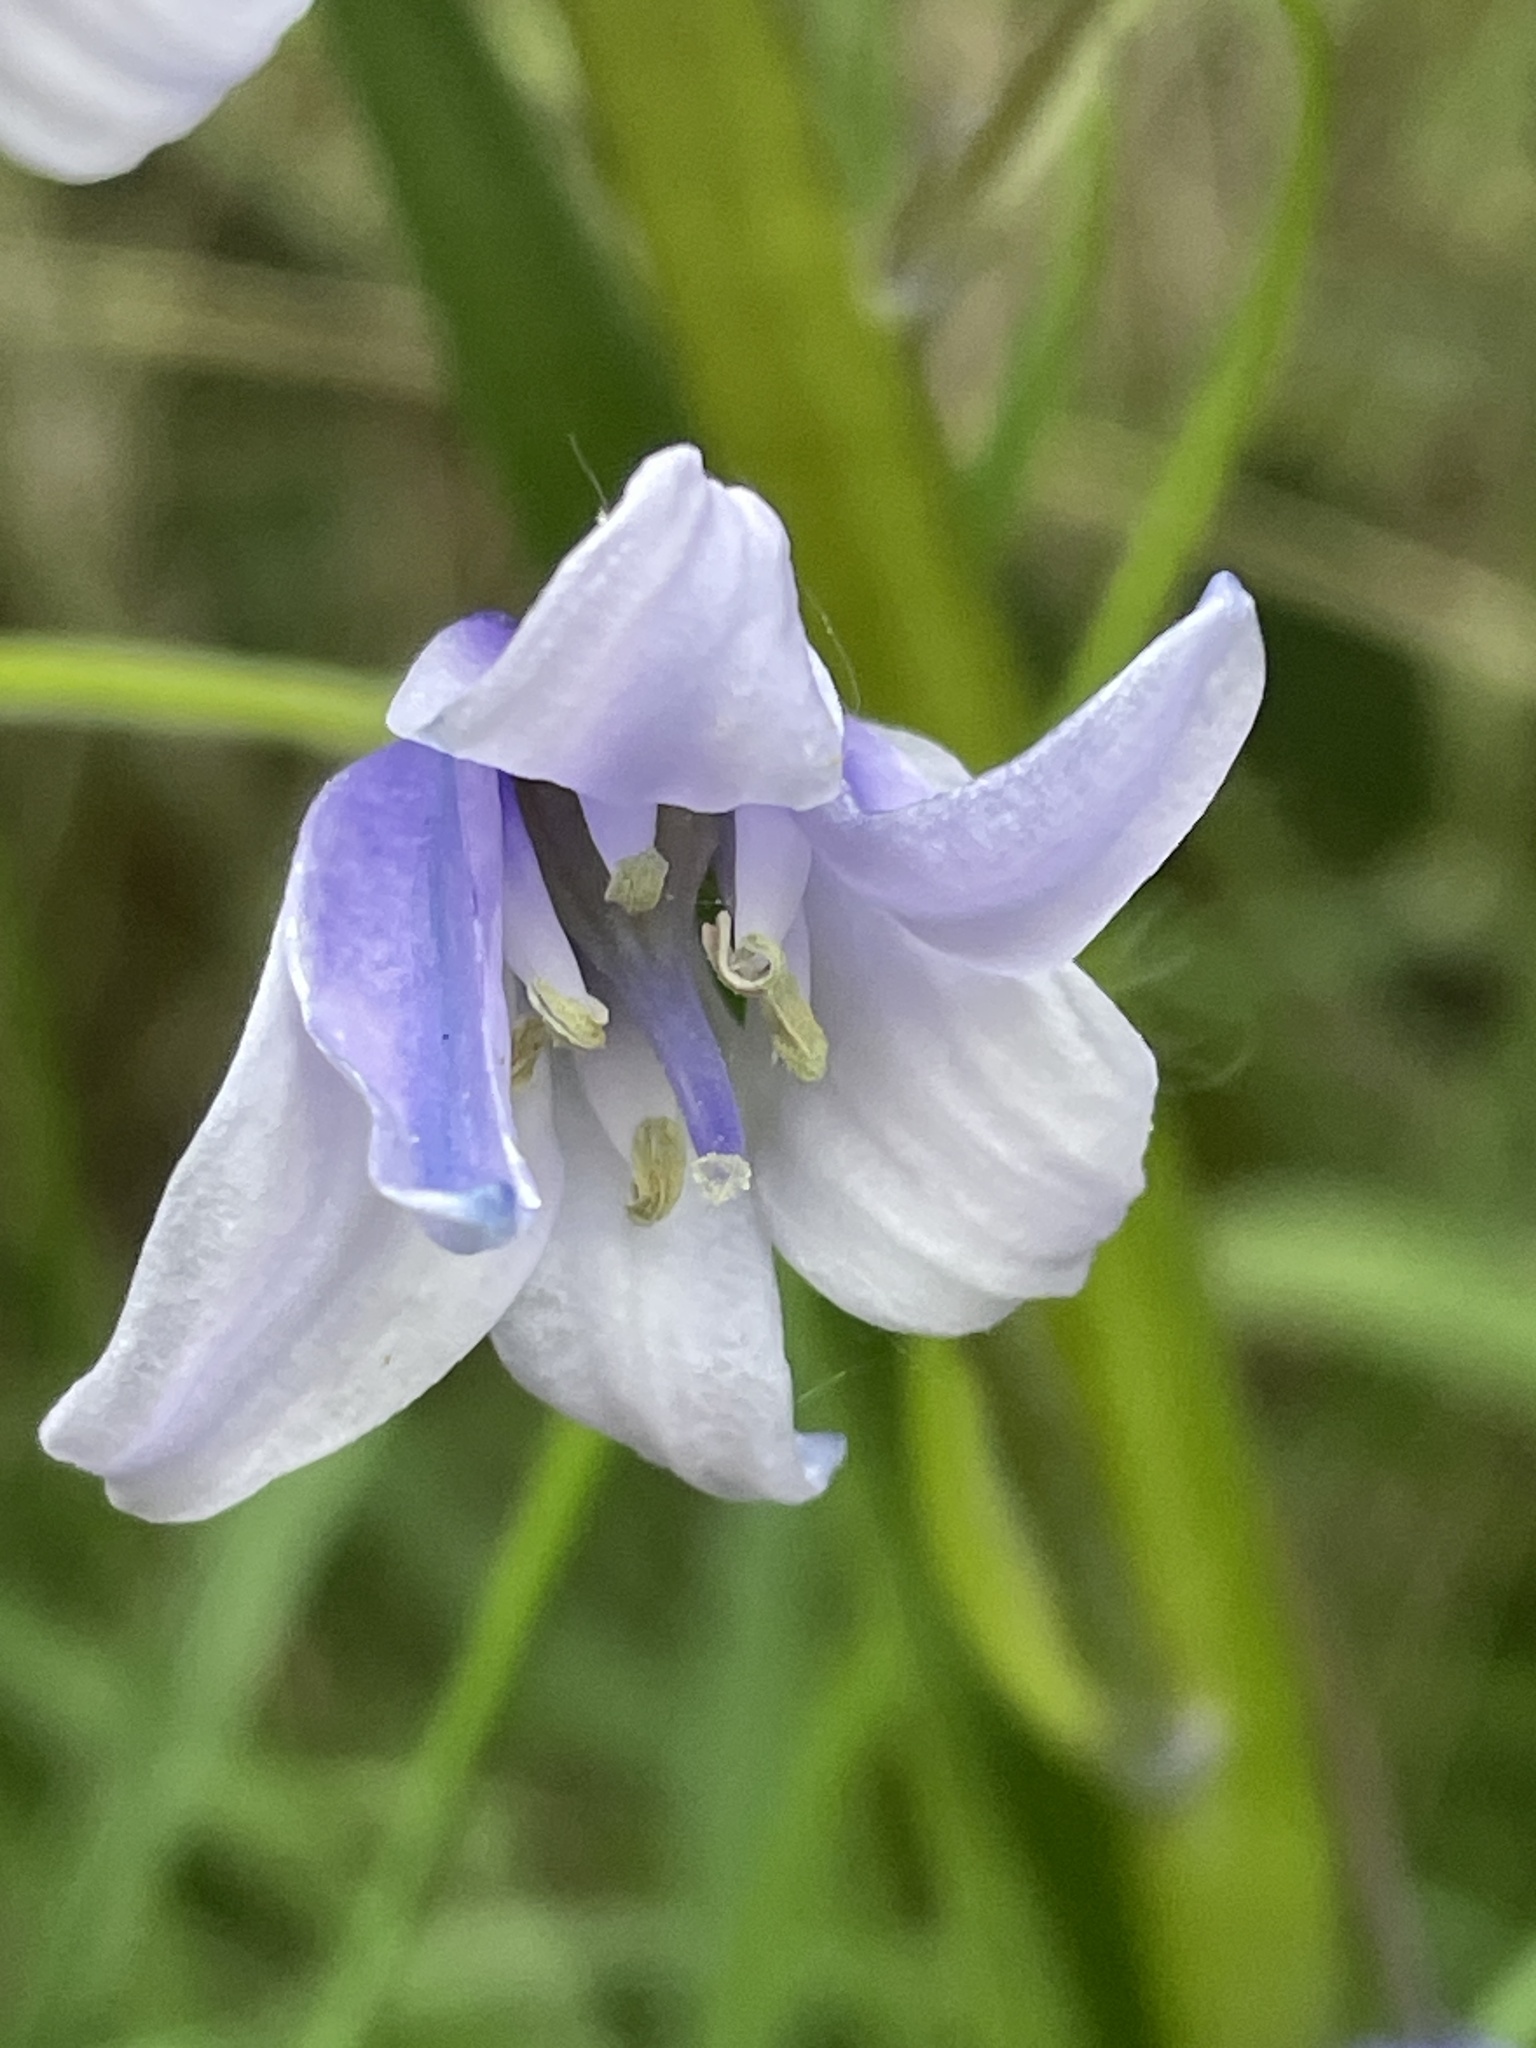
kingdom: Plantae
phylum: Tracheophyta
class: Liliopsida
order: Asparagales
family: Asparagaceae
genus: Hyacinthoides
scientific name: Hyacinthoides hispanica
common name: Spanish bluebell
